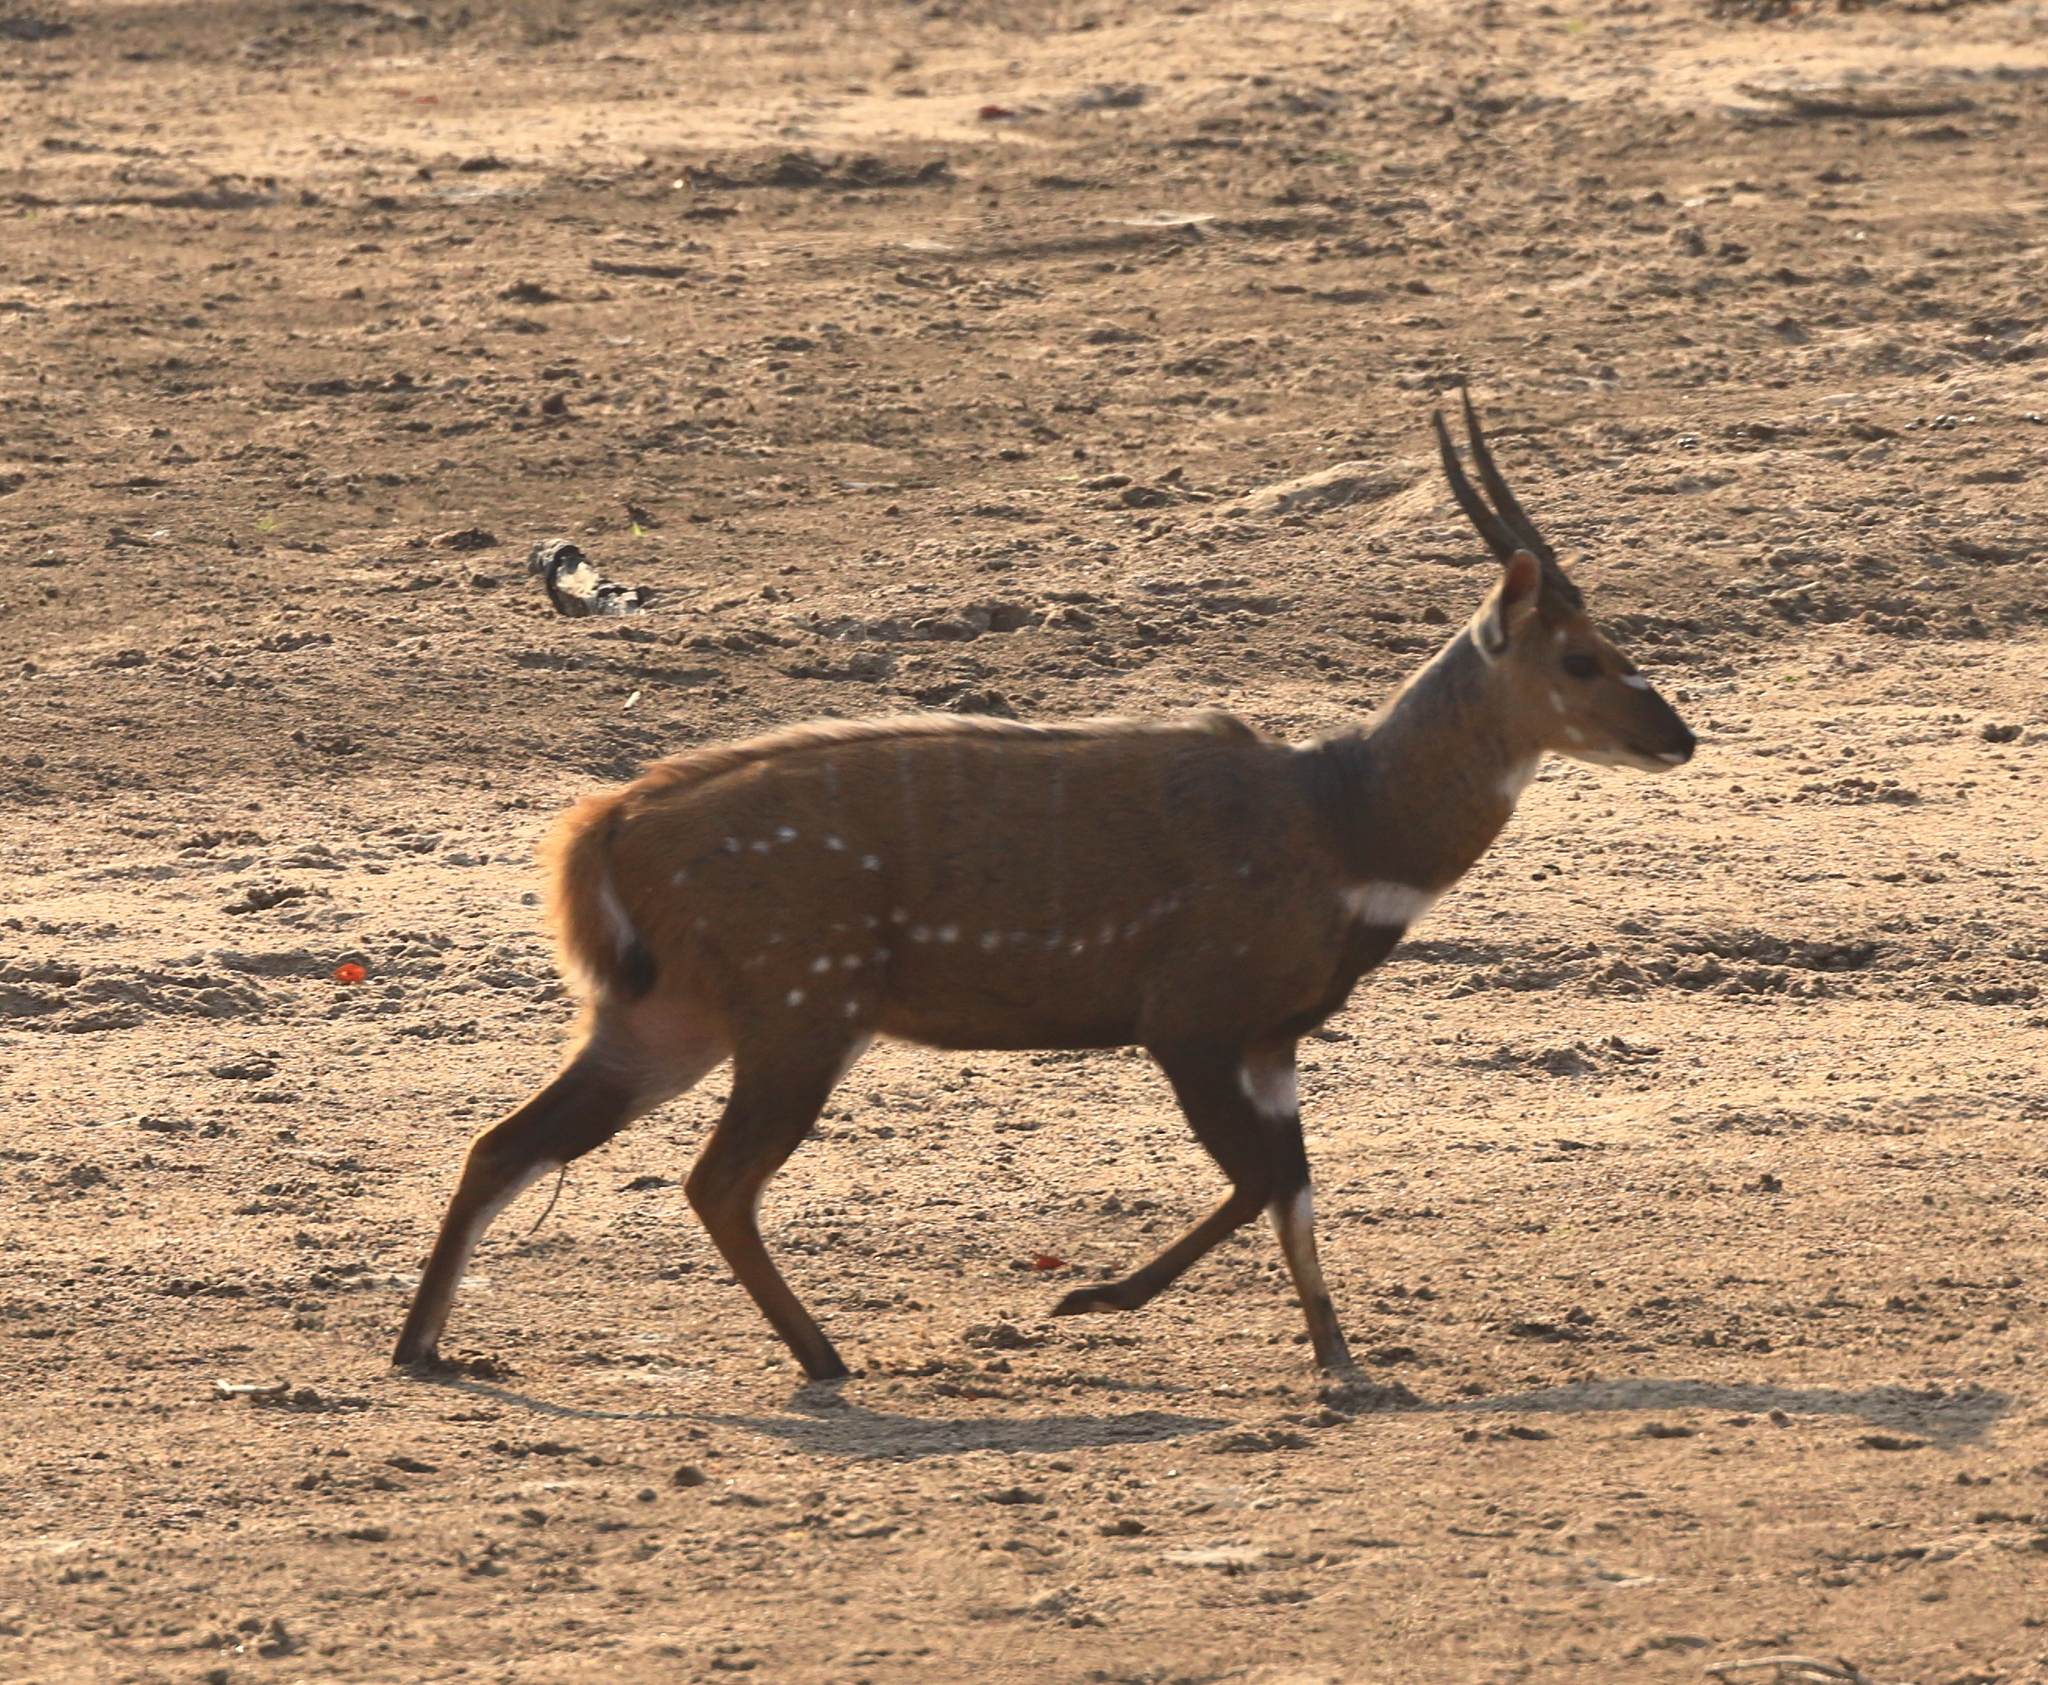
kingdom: Animalia
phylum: Chordata
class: Mammalia
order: Artiodactyla
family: Bovidae
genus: Tragelaphus
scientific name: Tragelaphus scriptus
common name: Bushbuck
